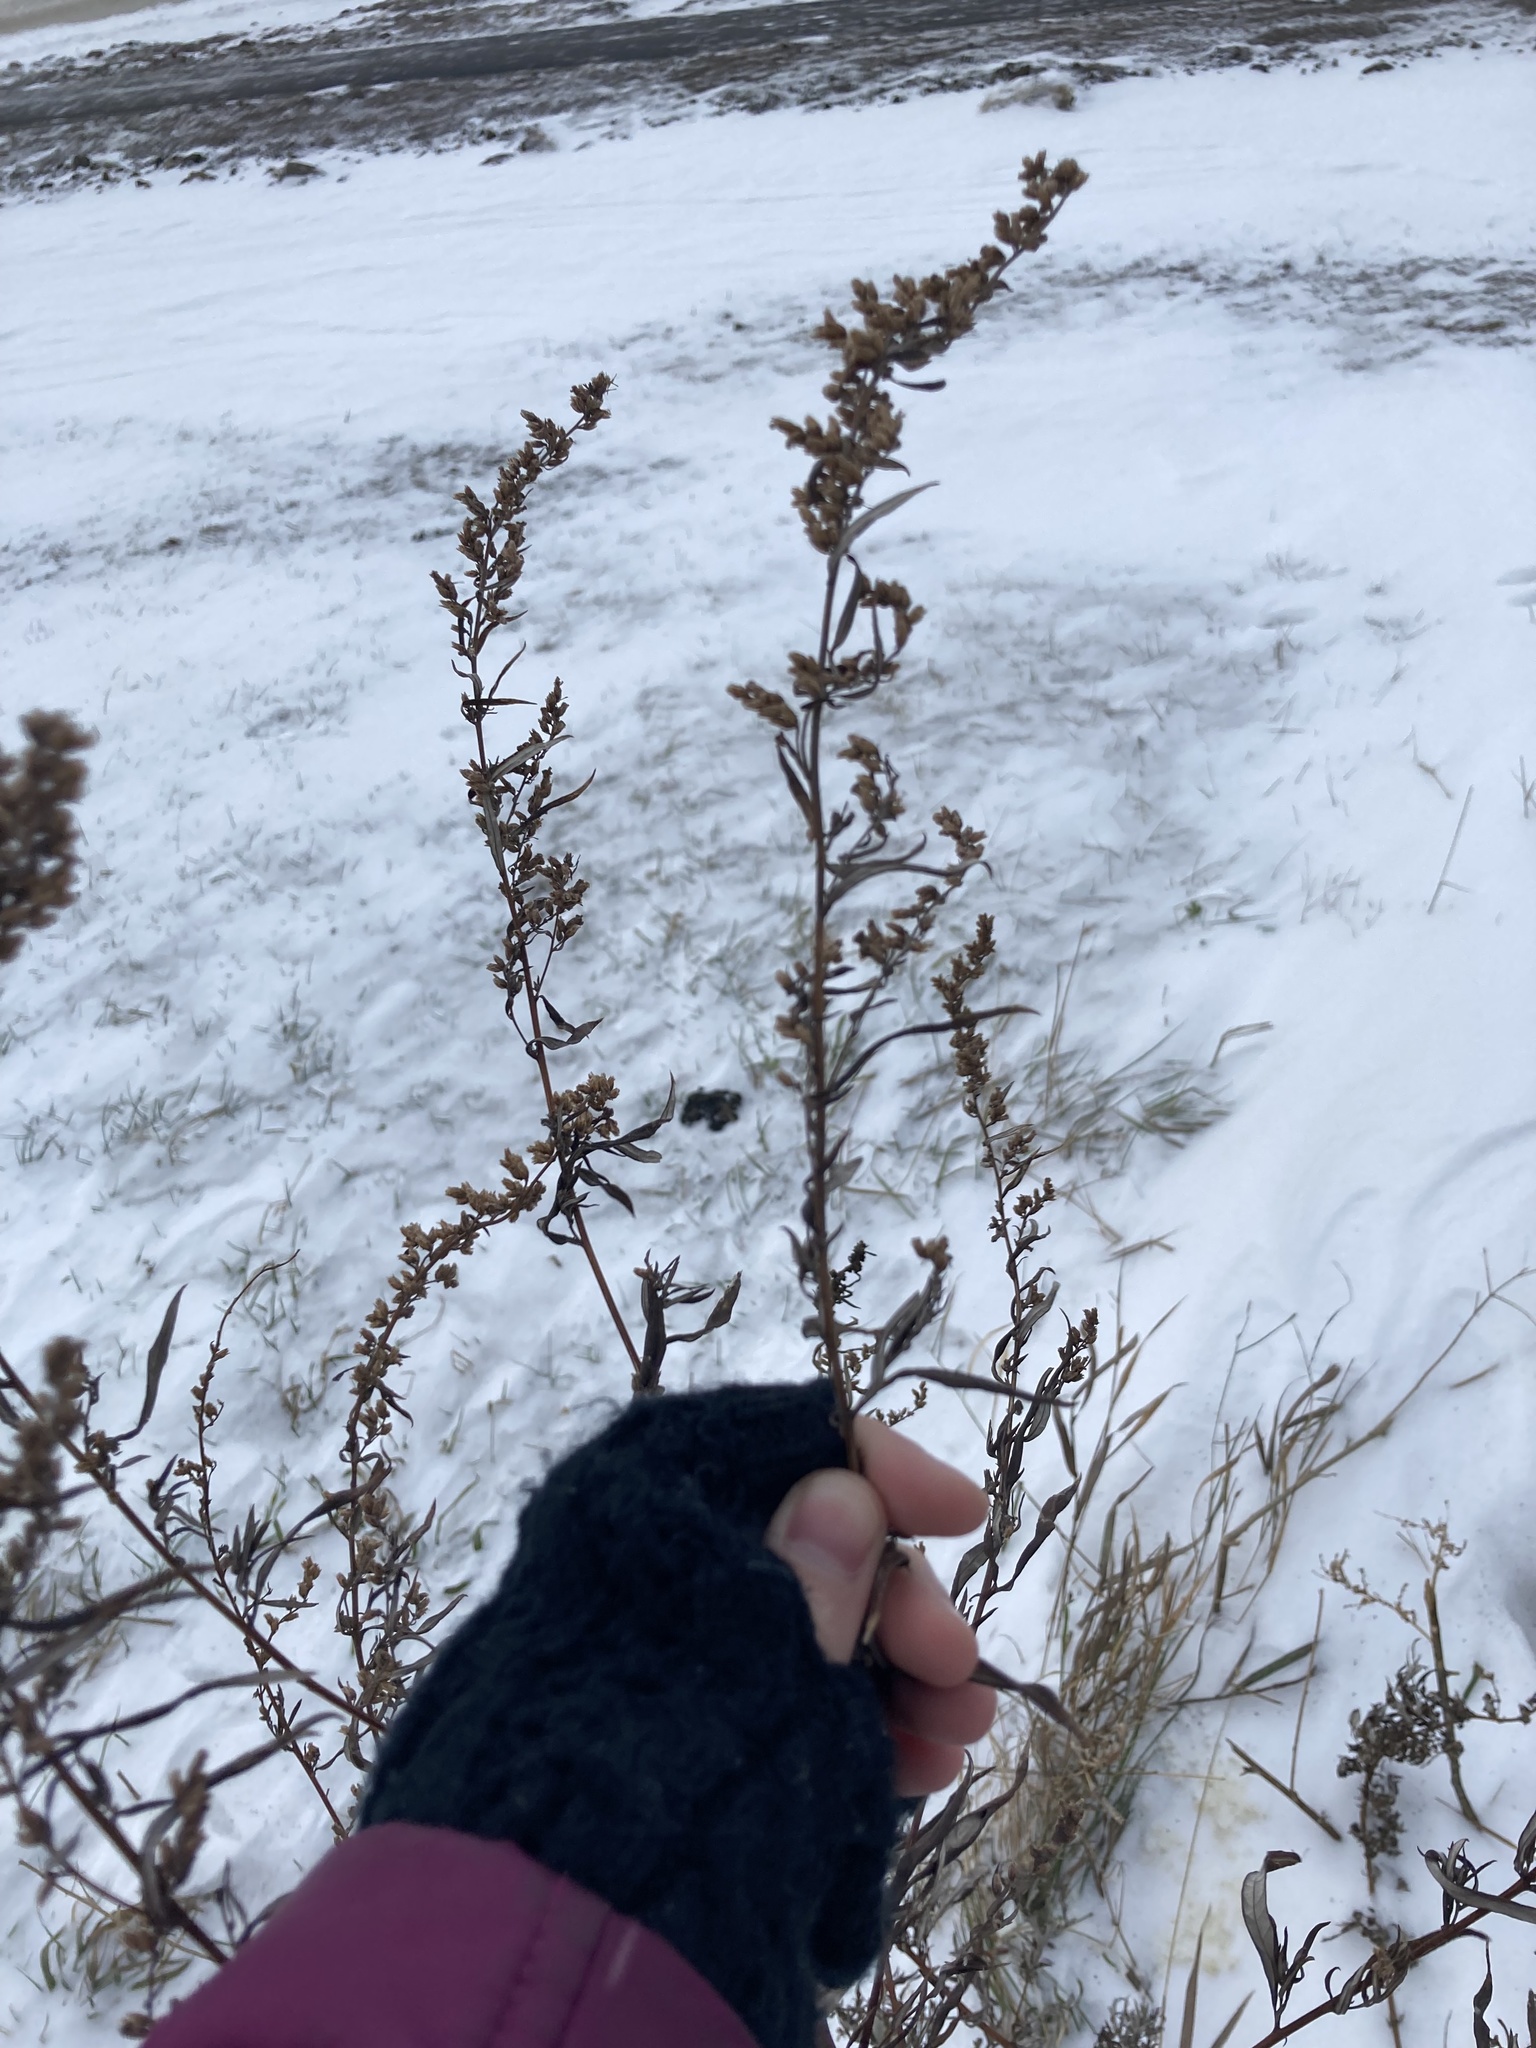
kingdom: Plantae
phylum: Tracheophyta
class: Magnoliopsida
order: Asterales
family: Asteraceae
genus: Artemisia
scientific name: Artemisia vulgaris
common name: Mugwort
